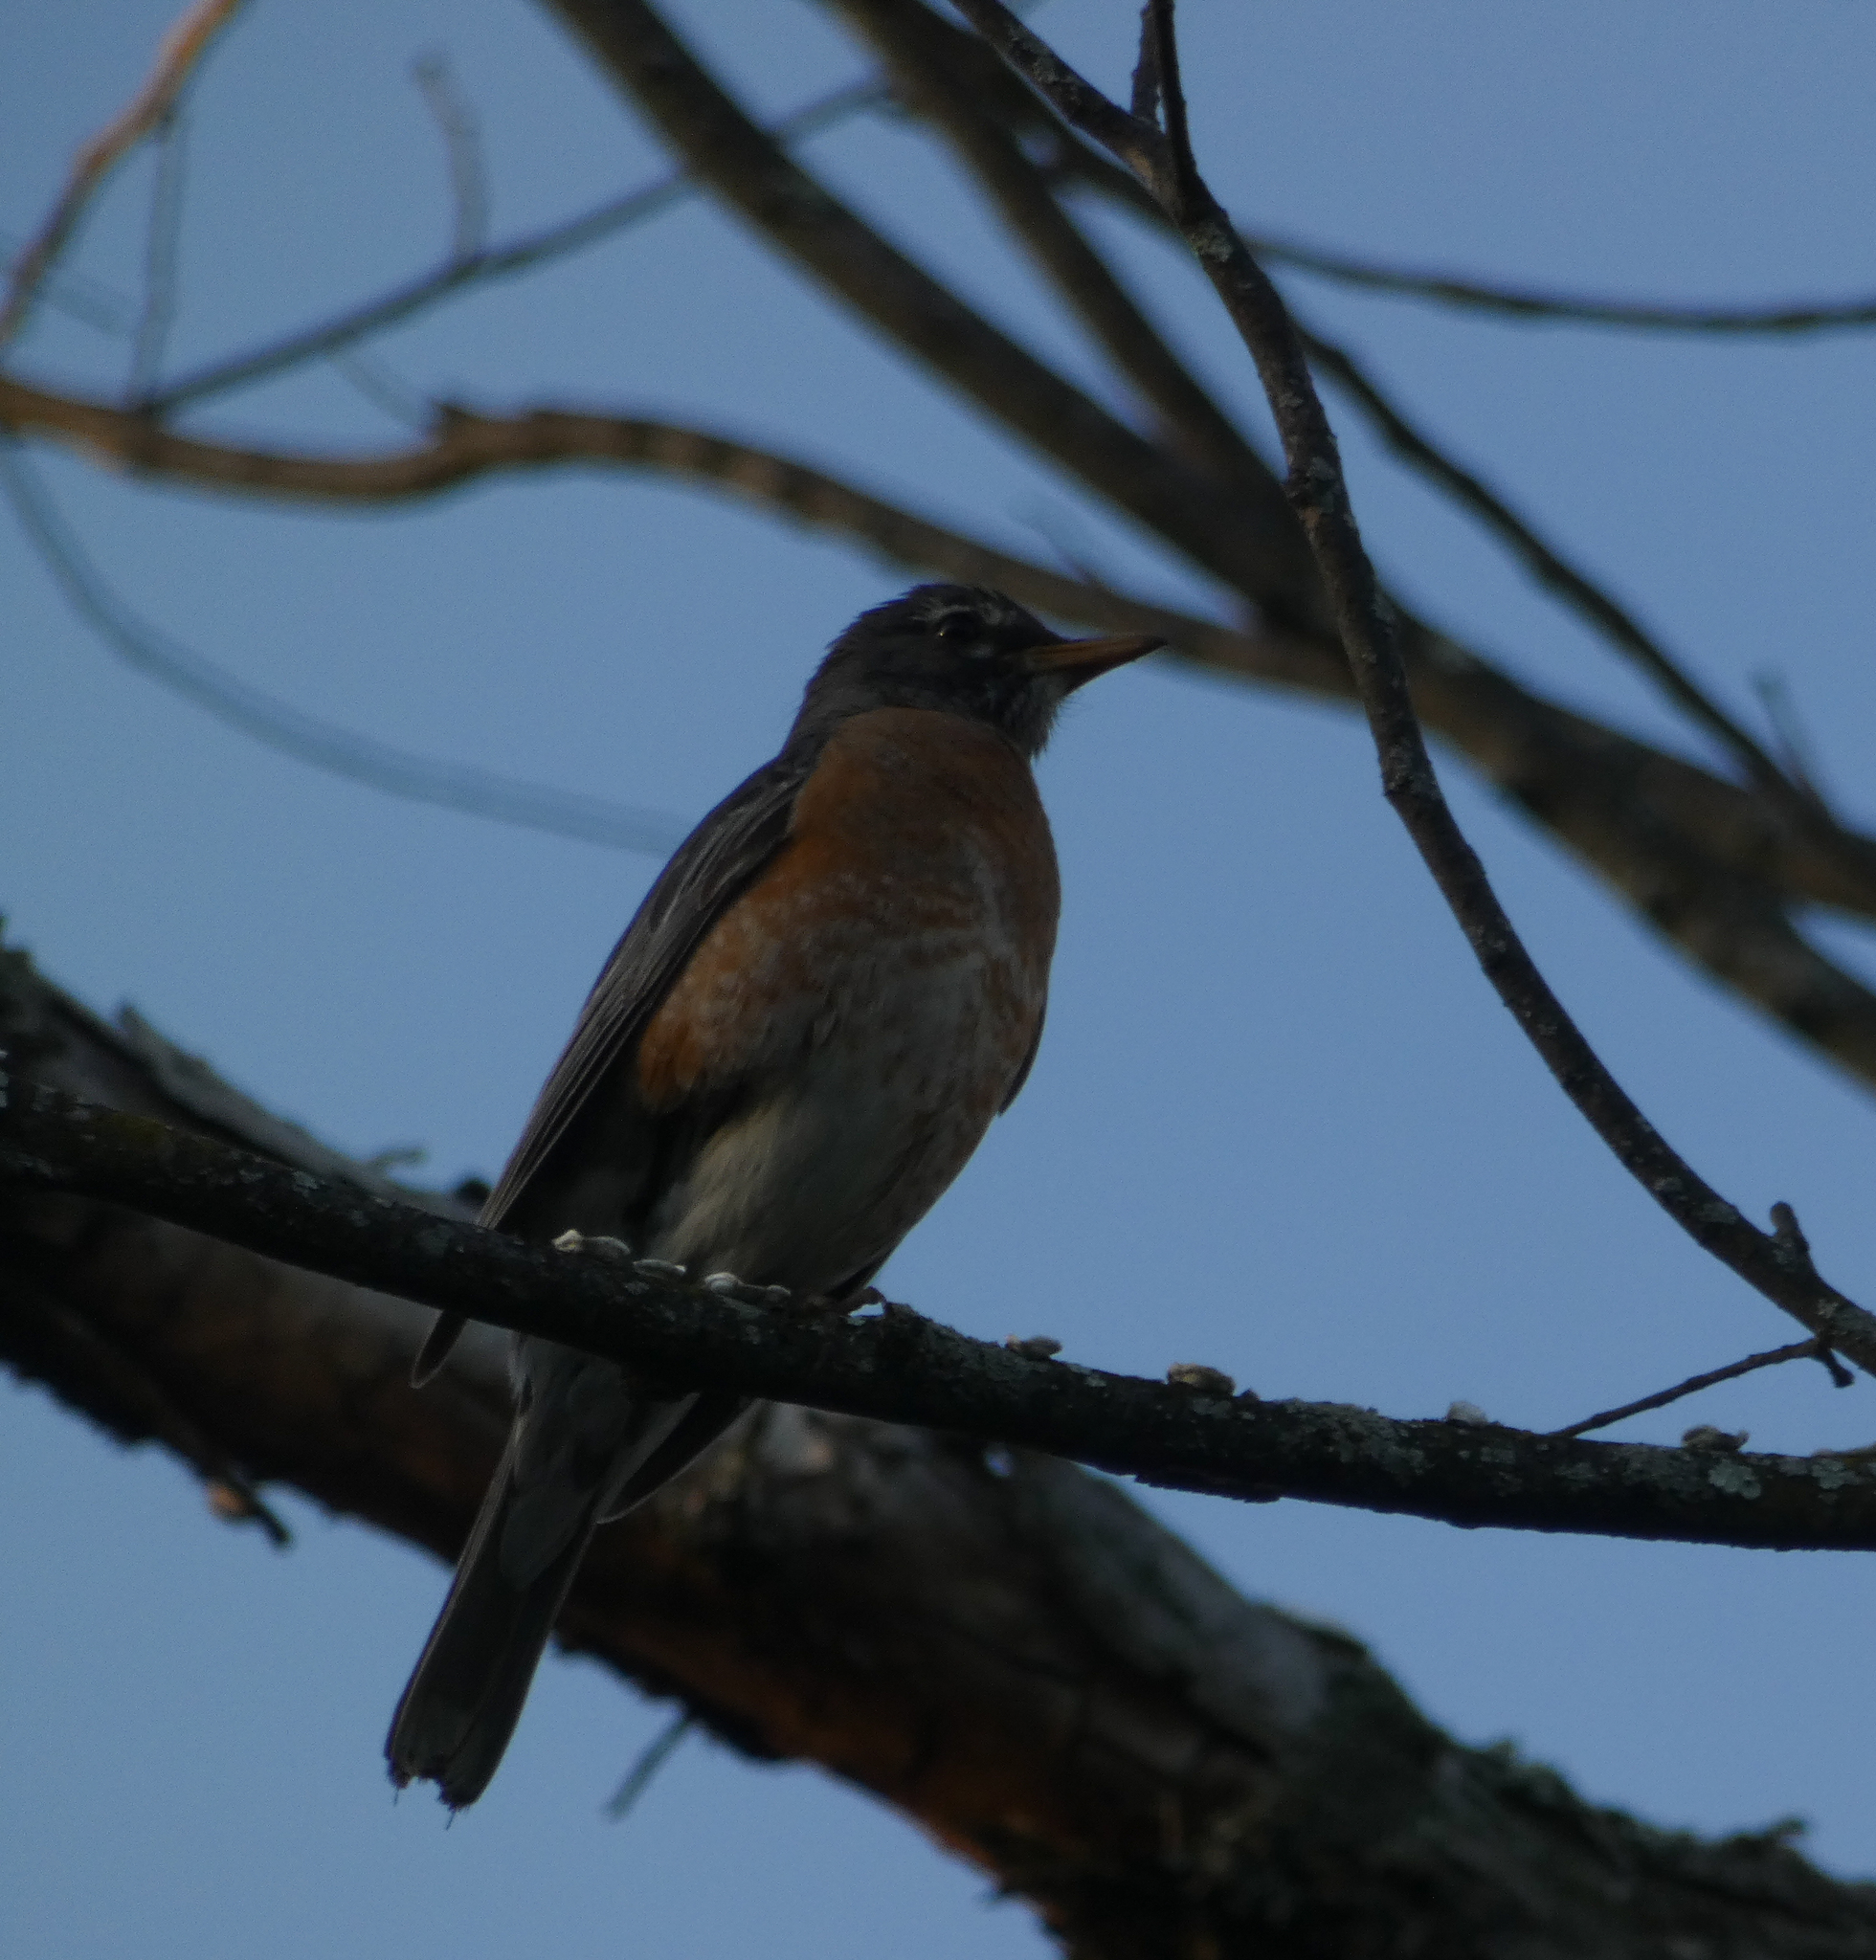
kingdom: Animalia
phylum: Chordata
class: Aves
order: Passeriformes
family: Turdidae
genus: Turdus
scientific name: Turdus migratorius
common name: American robin
